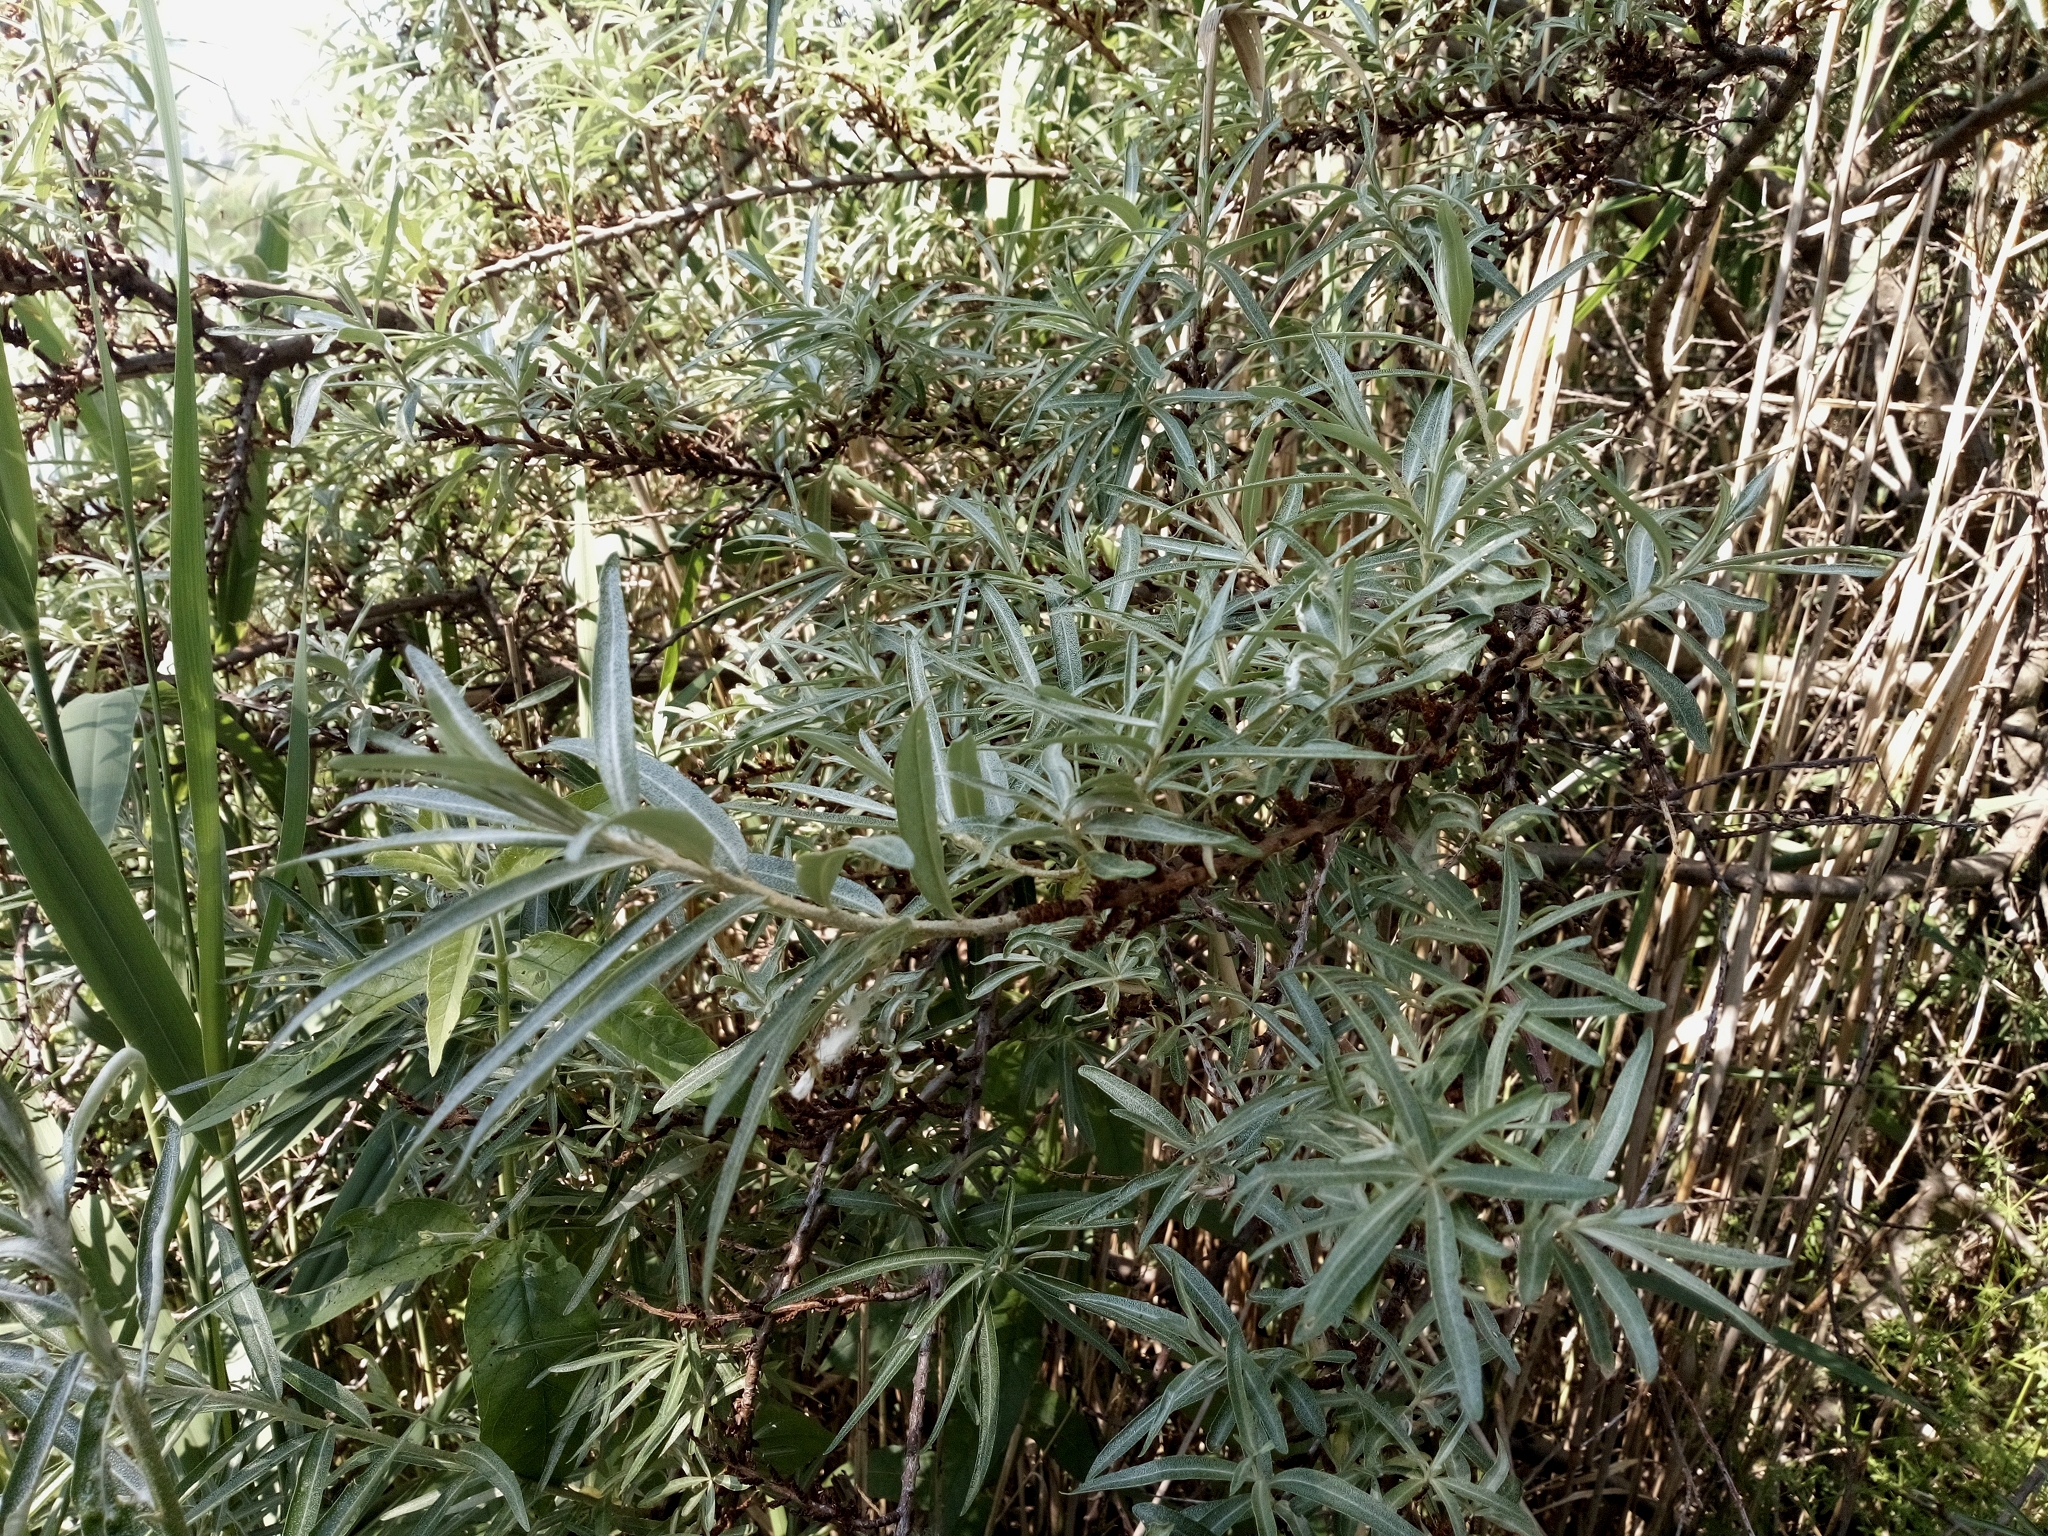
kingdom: Plantae
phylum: Tracheophyta
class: Magnoliopsida
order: Rosales
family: Elaeagnaceae
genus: Hippophae
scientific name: Hippophae rhamnoides
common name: Sea-buckthorn
